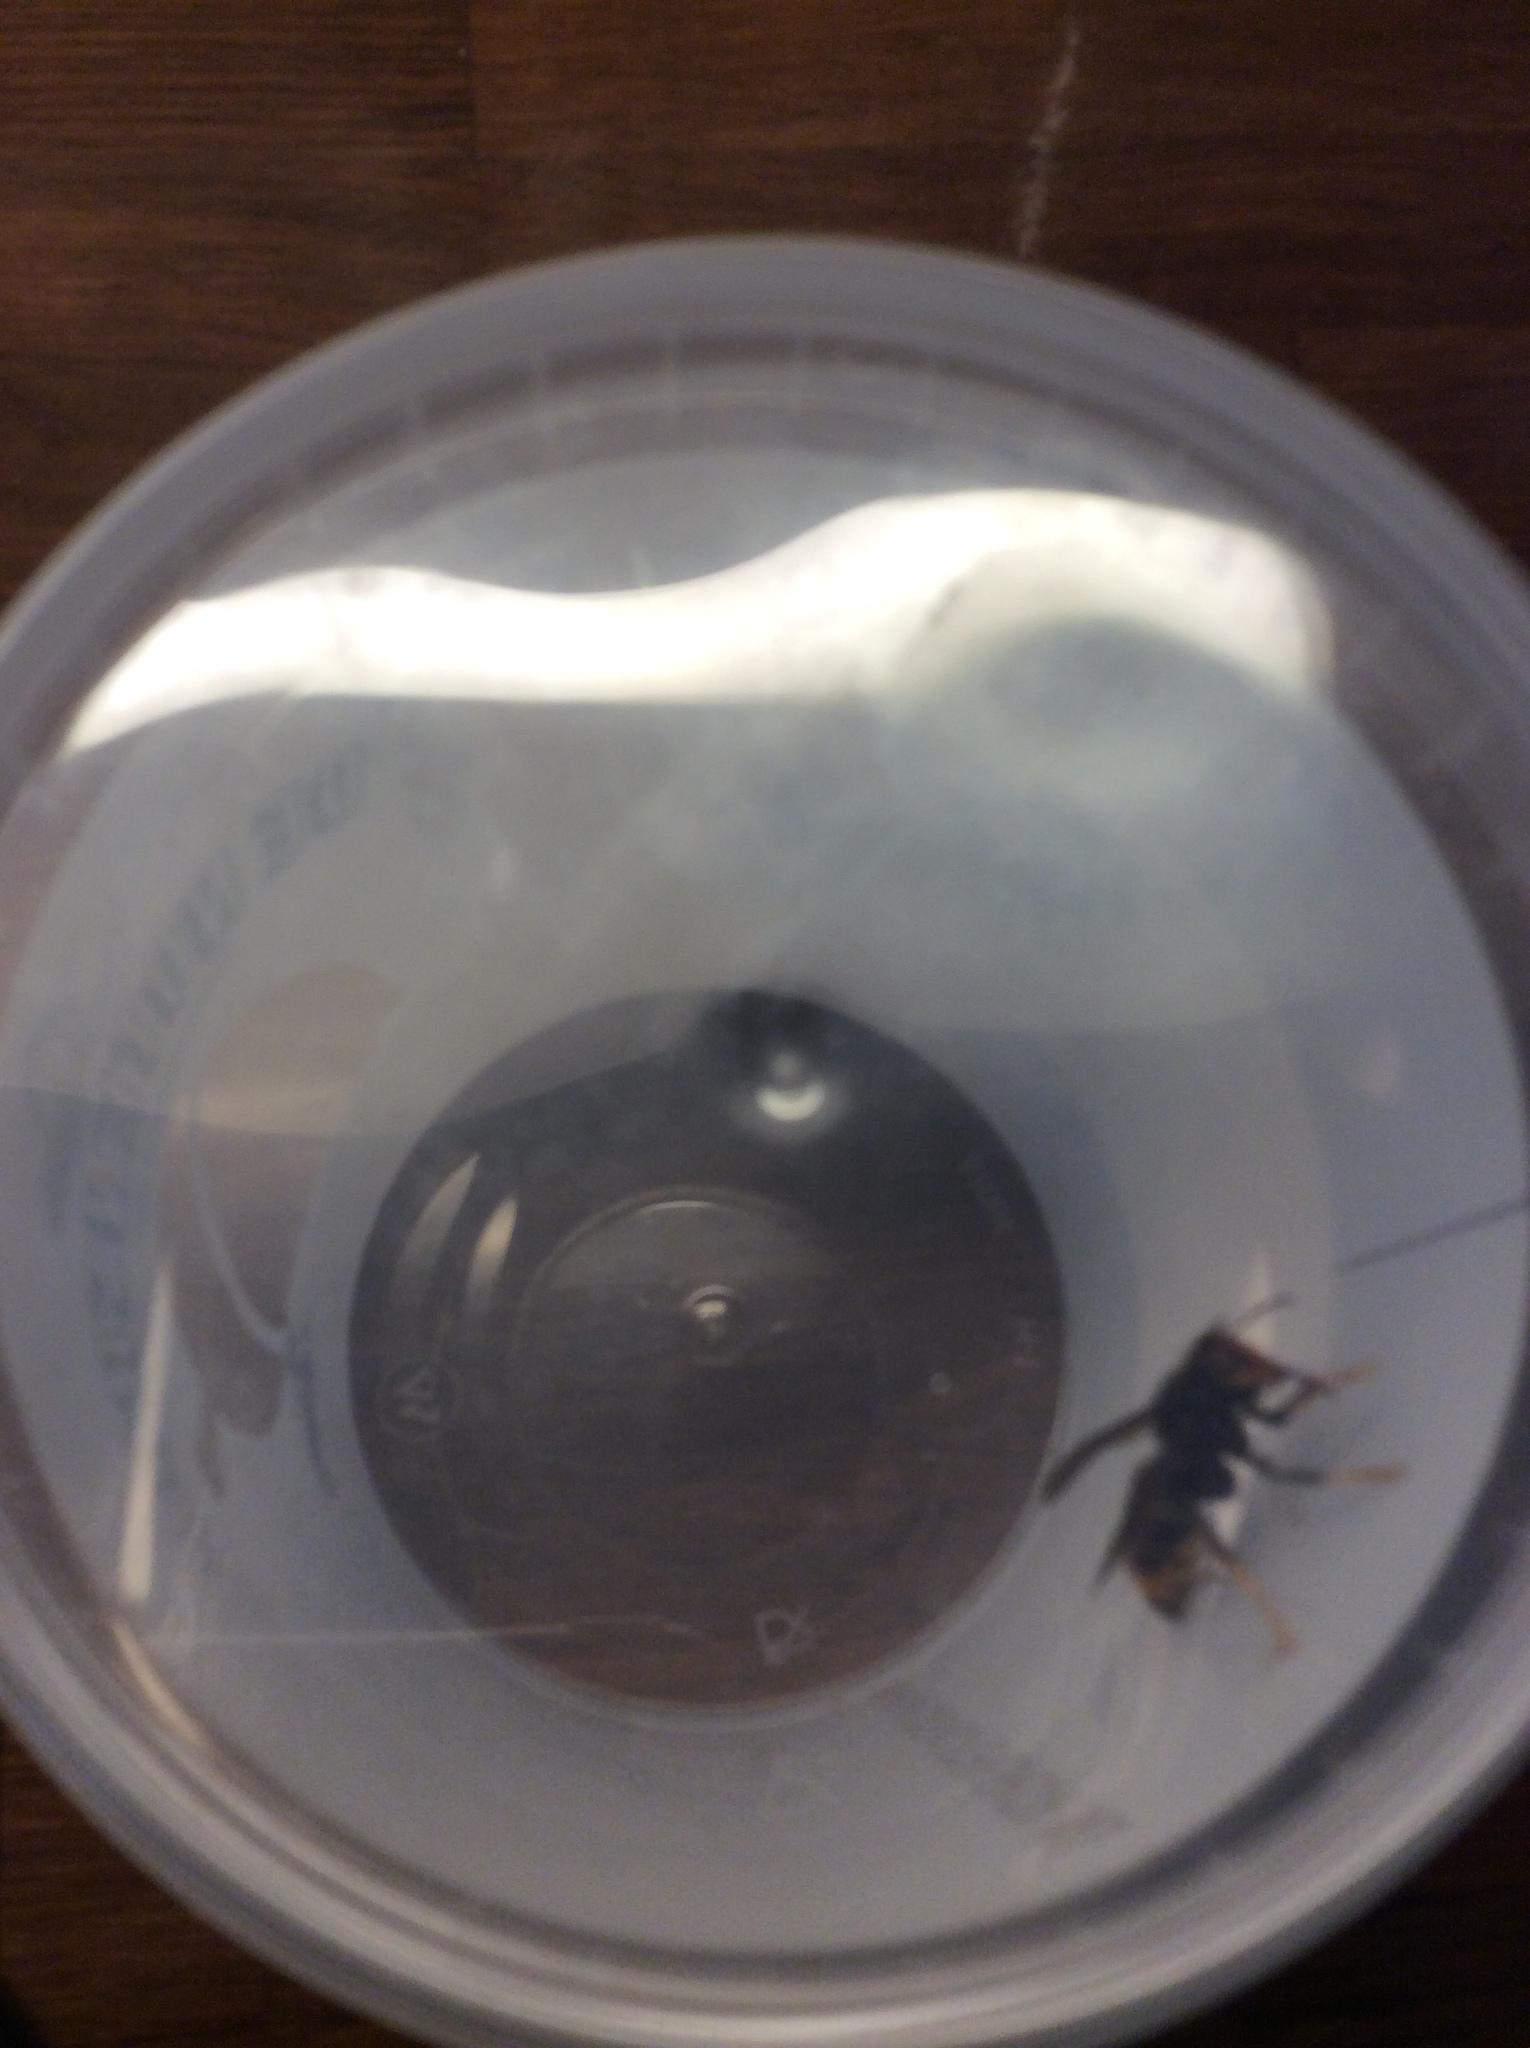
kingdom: Animalia
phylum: Arthropoda
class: Insecta
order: Hymenoptera
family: Vespidae
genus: Vespa
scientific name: Vespa velutina
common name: Asian hornet
